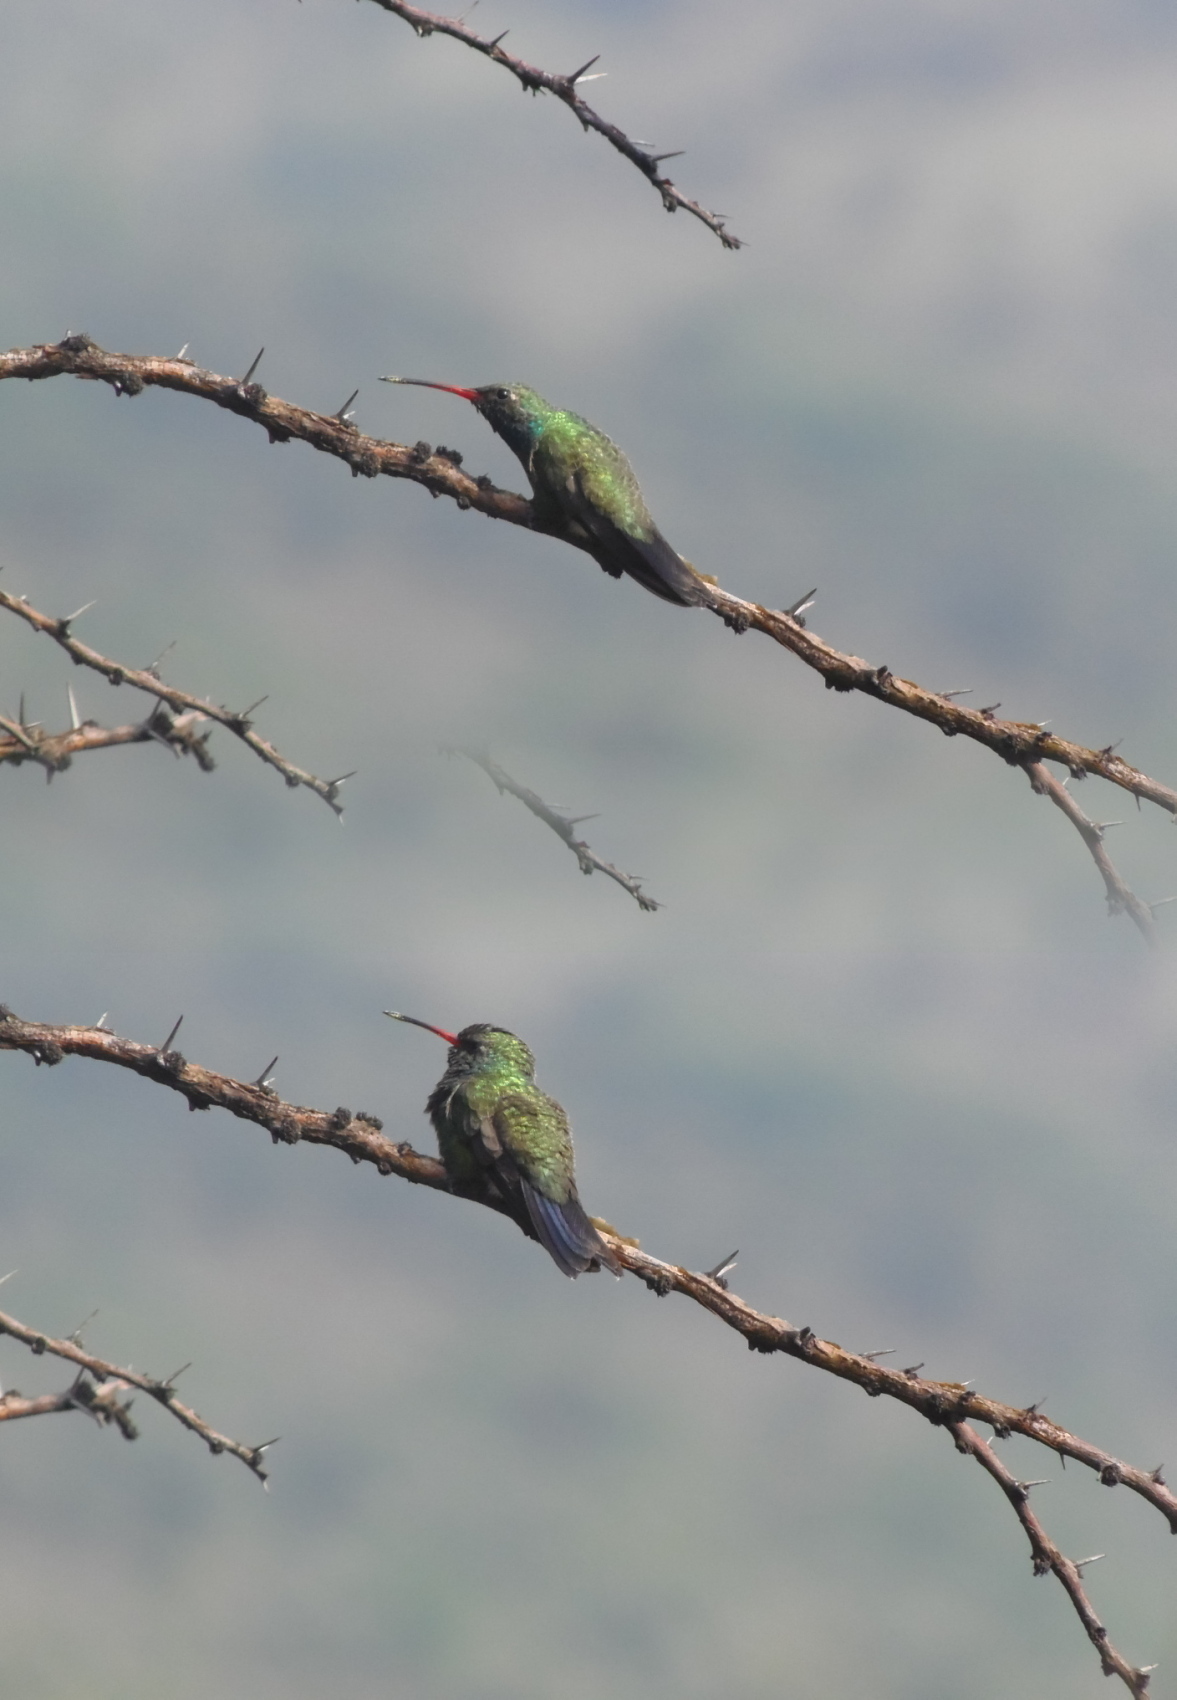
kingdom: Animalia
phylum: Chordata
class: Aves
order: Apodiformes
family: Trochilidae
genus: Cynanthus
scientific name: Cynanthus latirostris
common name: Broad-billed hummingbird
